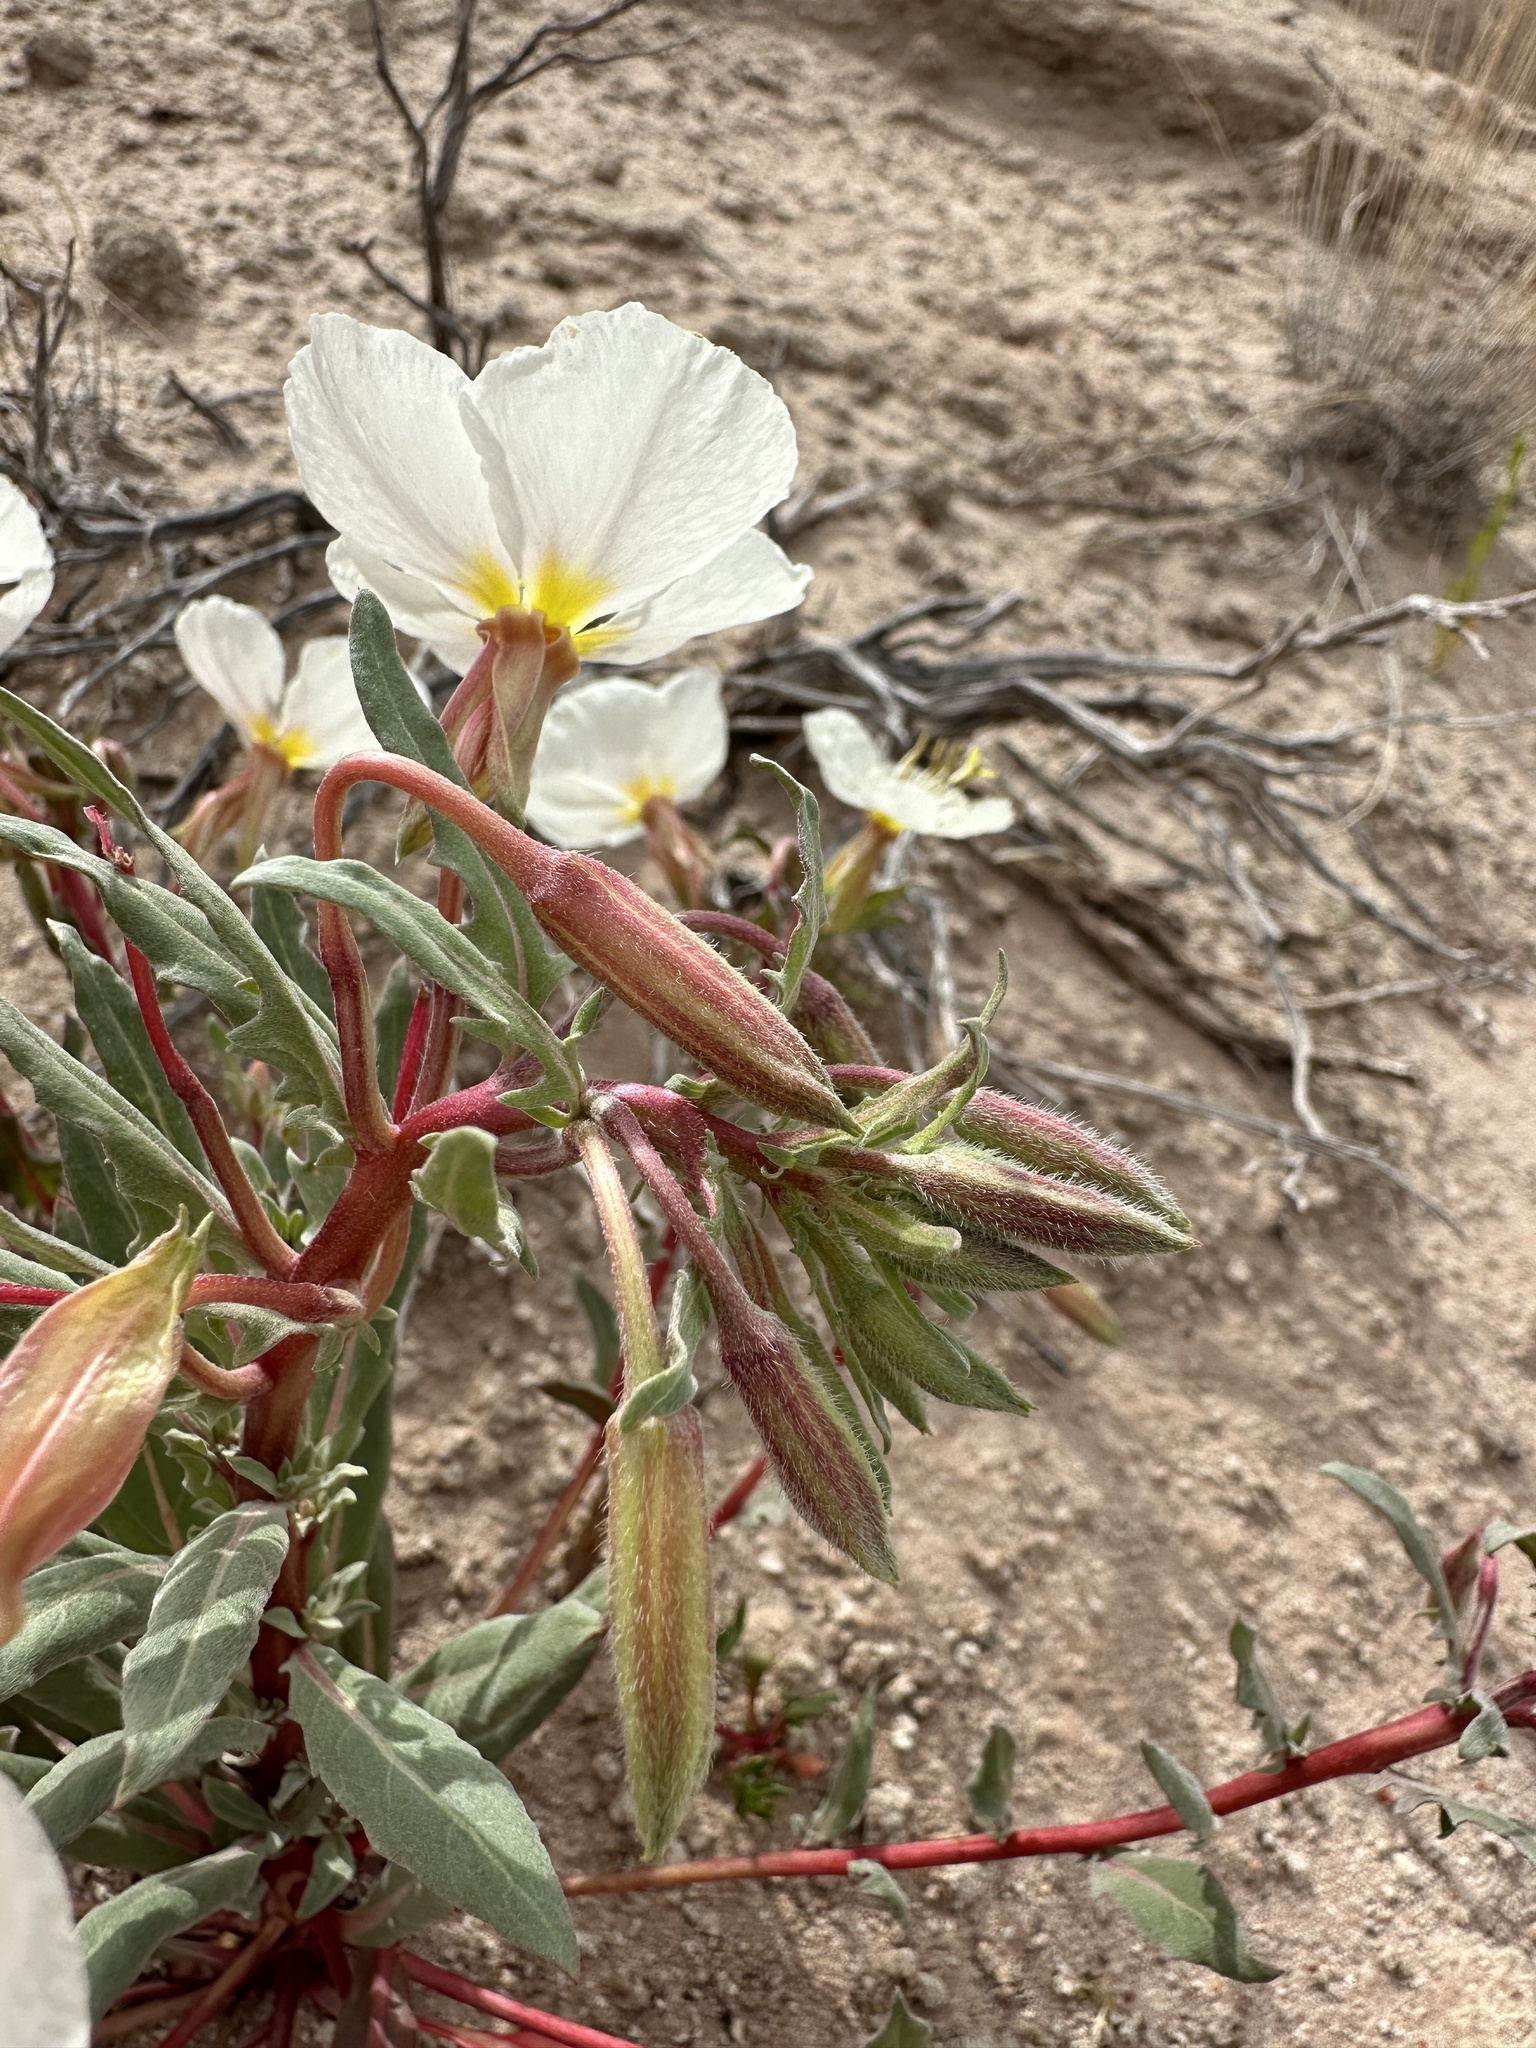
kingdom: Plantae
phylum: Tracheophyta
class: Magnoliopsida
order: Myrtales
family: Onagraceae
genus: Oenothera
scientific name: Oenothera pallida
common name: Pale evening-primrose
